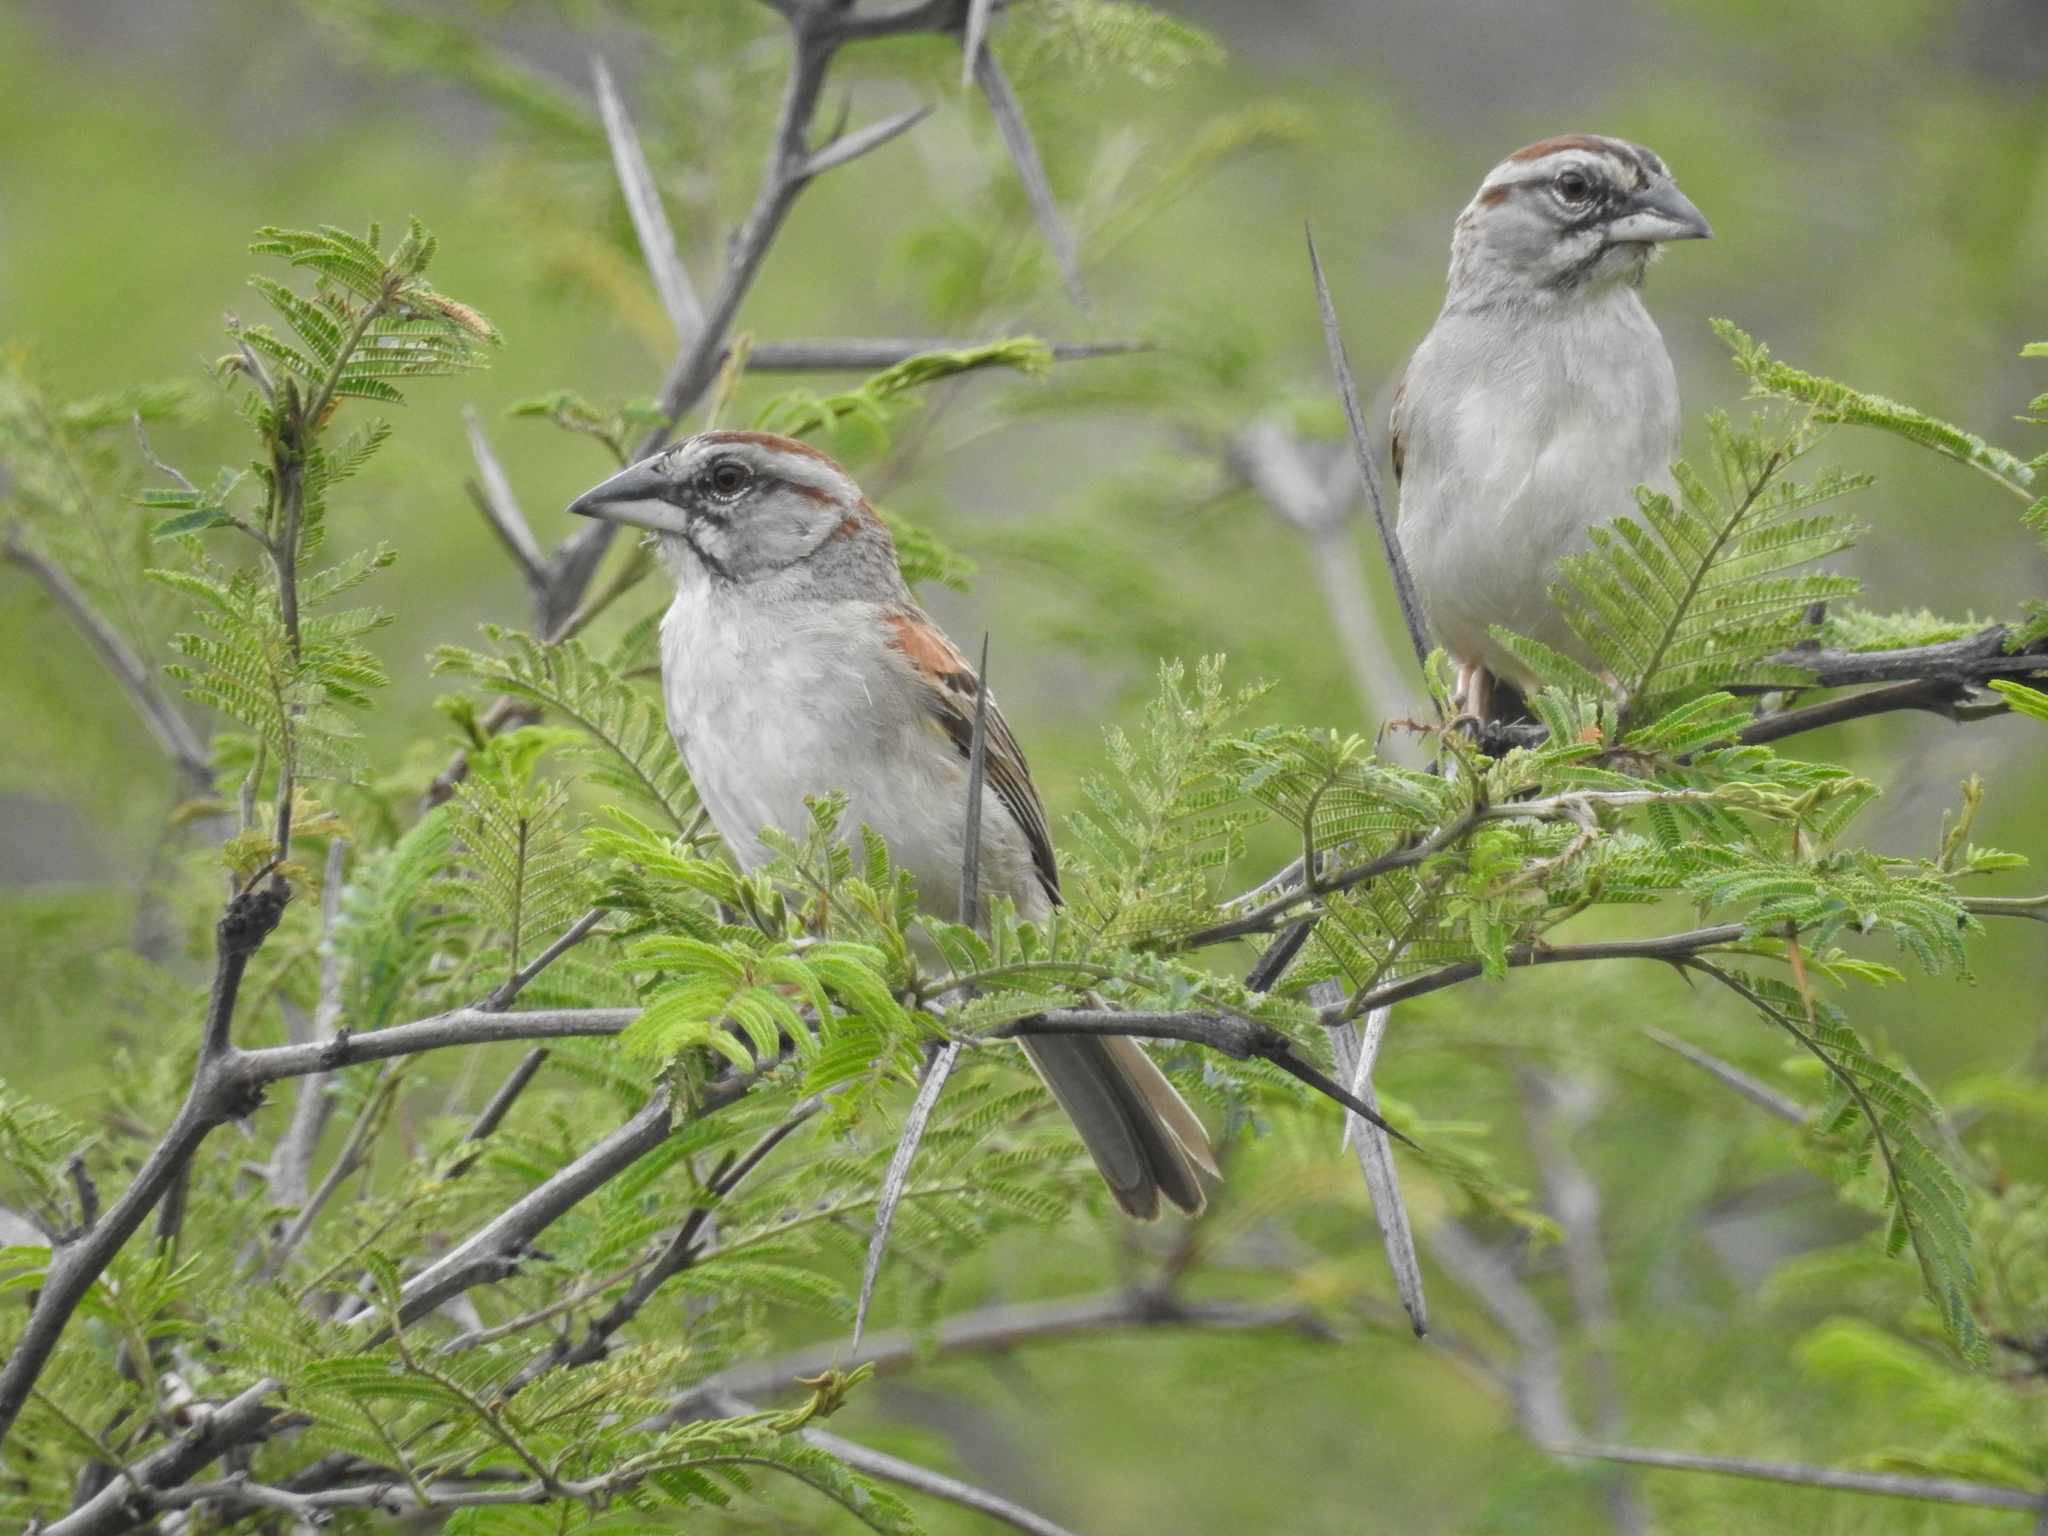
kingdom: Animalia
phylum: Chordata
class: Aves
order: Passeriformes
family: Passerellidae
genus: Rhynchospiza
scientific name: Rhynchospiza stolzmanni
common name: Tumbes sparrow
